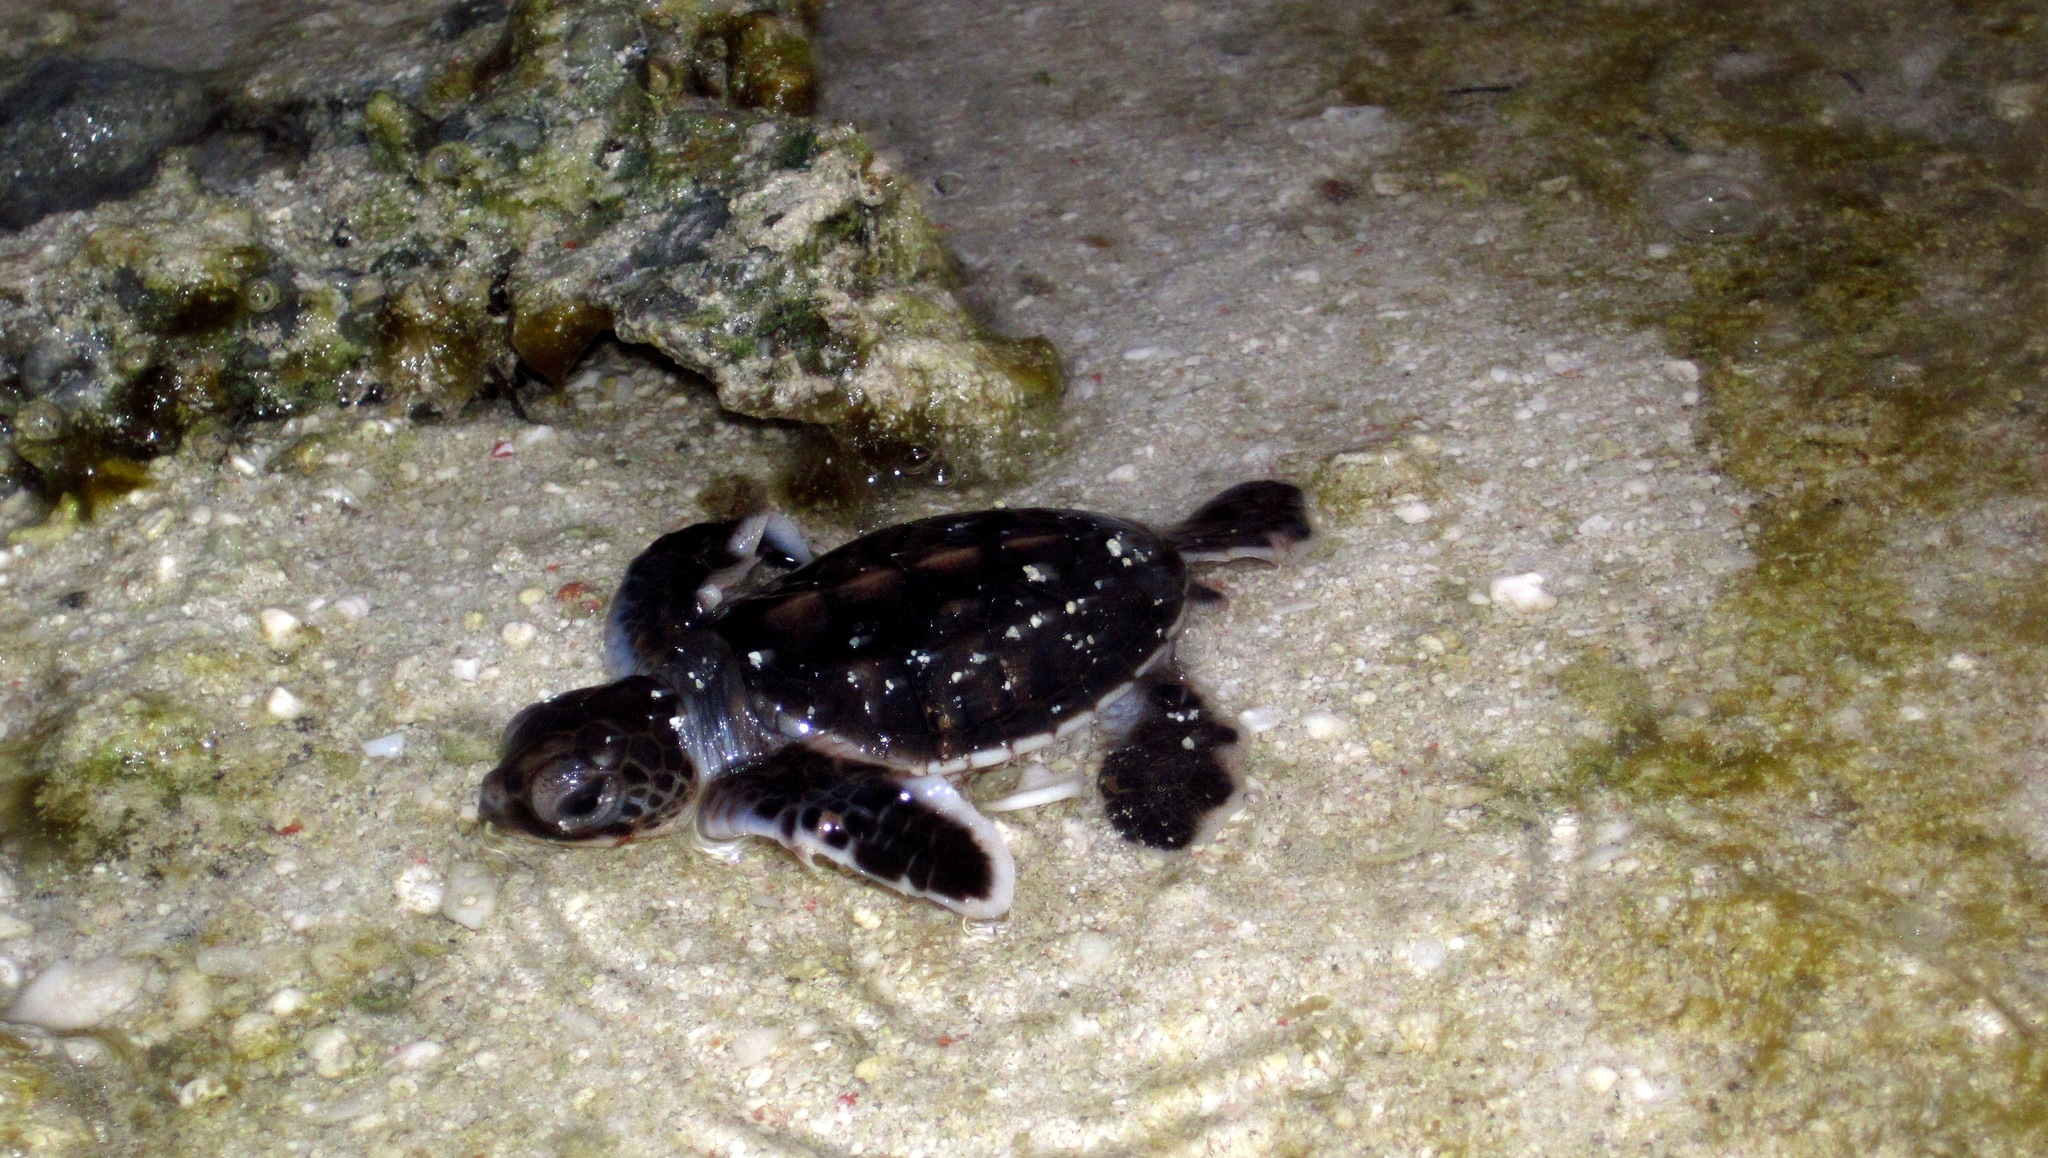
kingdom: Animalia
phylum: Chordata
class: Testudines
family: Cheloniidae
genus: Chelonia
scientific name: Chelonia mydas
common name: Green turtle
